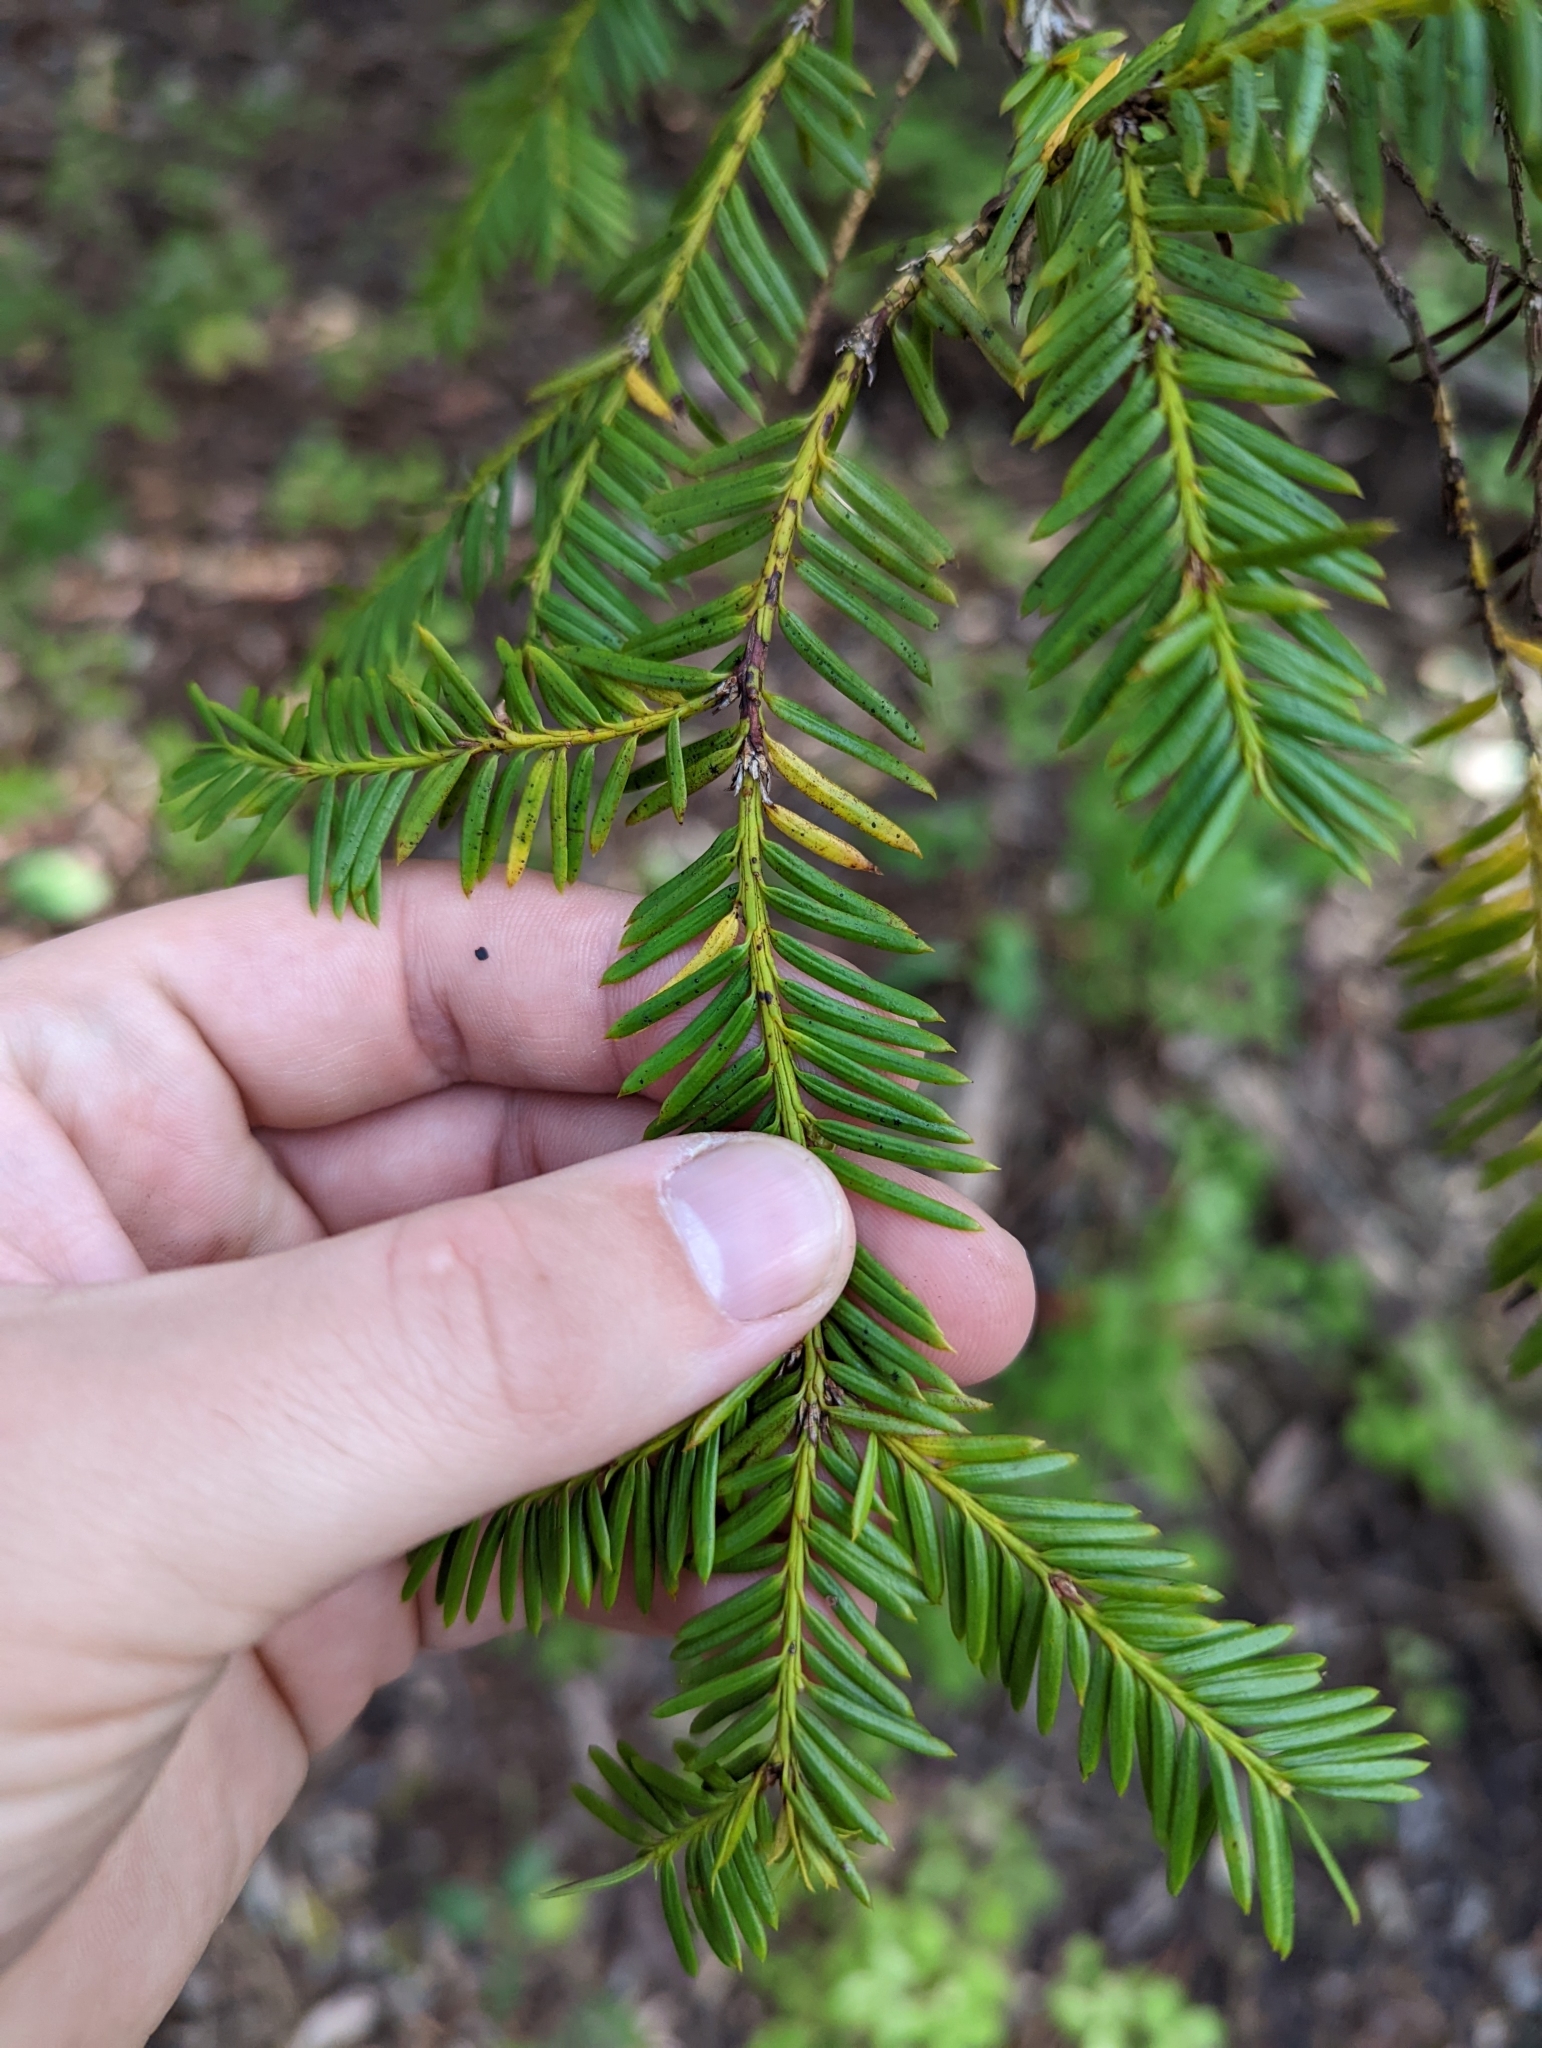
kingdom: Plantae
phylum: Tracheophyta
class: Pinopsida
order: Pinales
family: Taxaceae
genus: Taxus
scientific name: Taxus brevifolia
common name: Pacific yew
